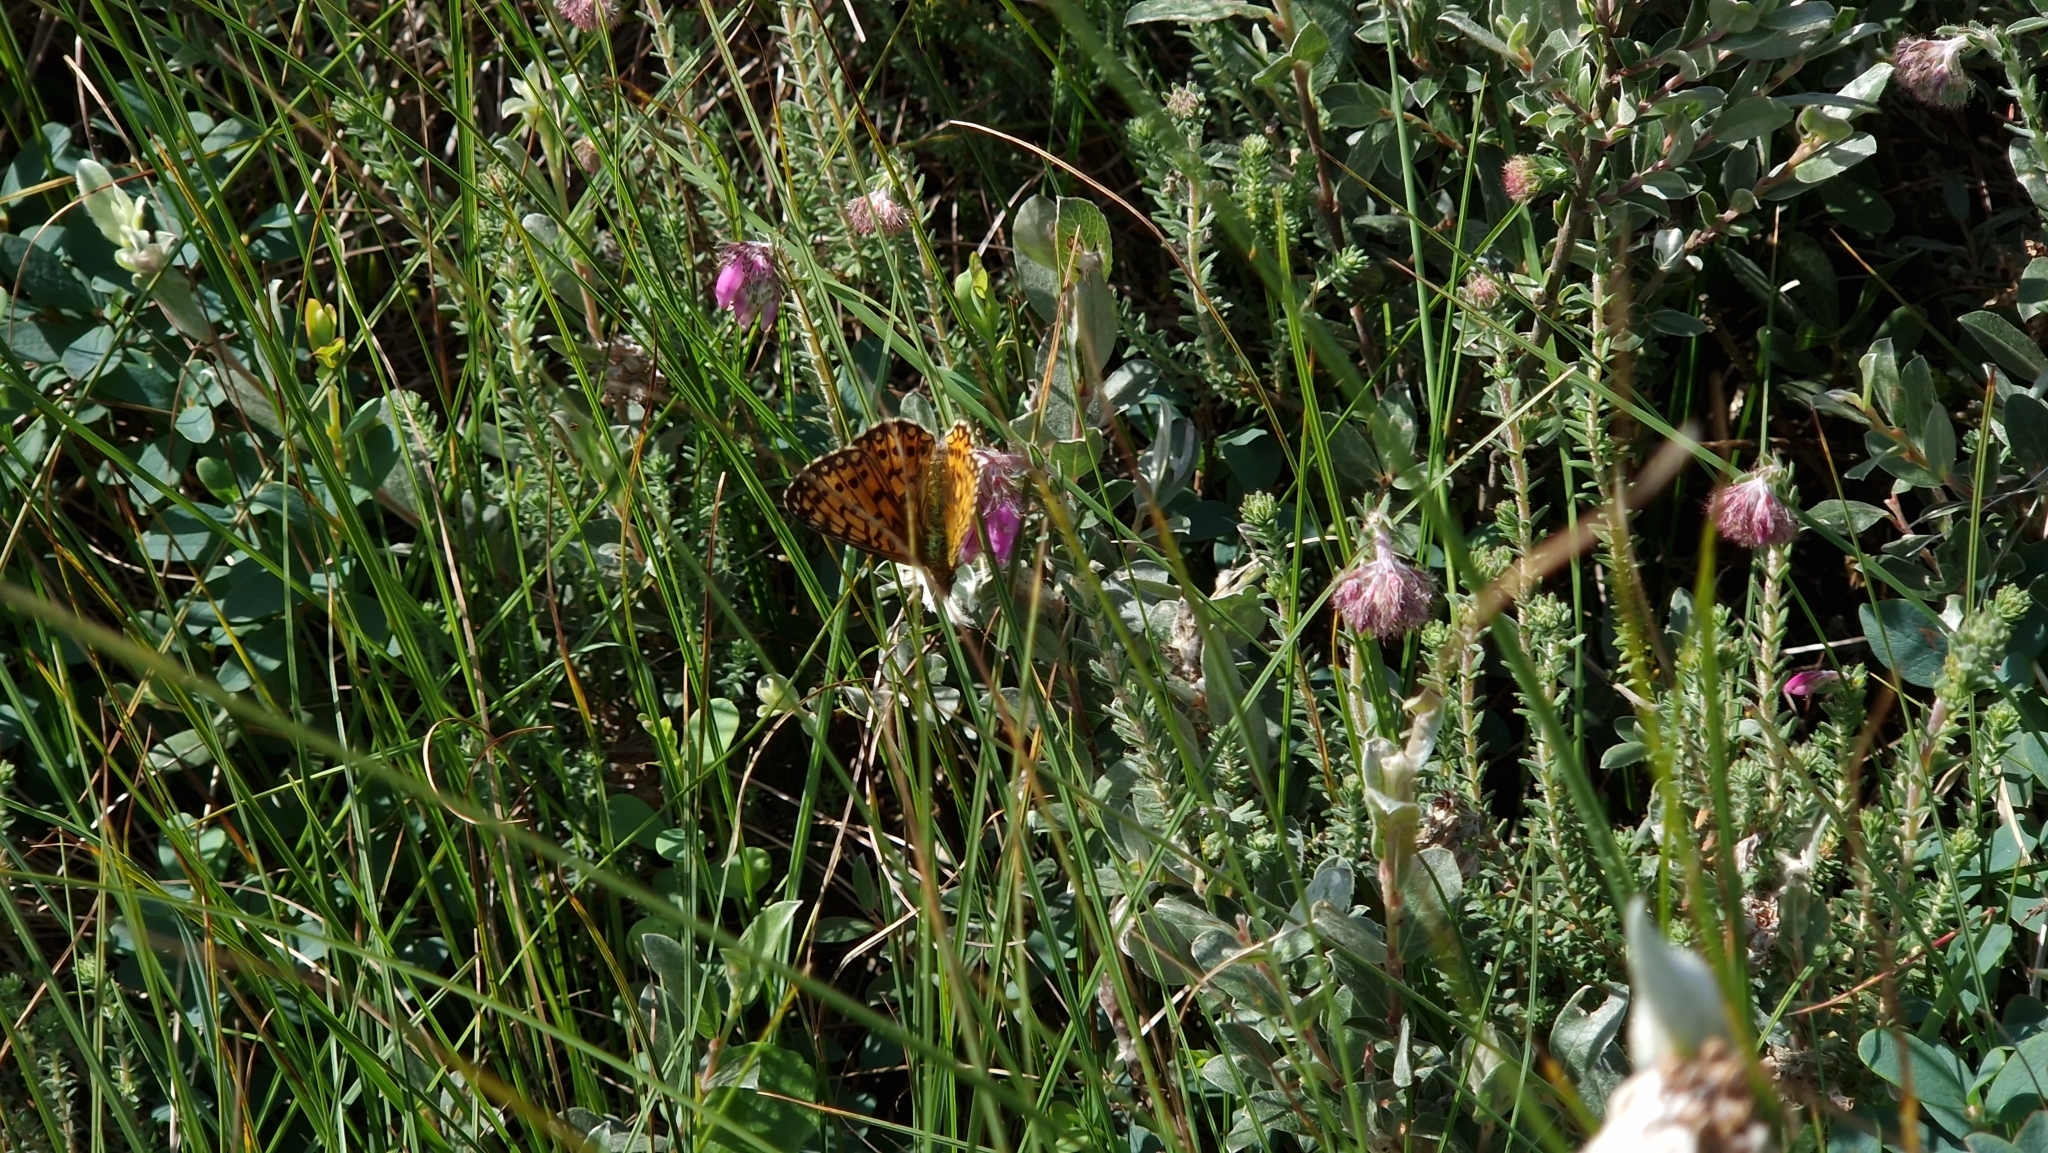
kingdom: Animalia
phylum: Arthropoda
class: Insecta
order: Lepidoptera
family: Nymphalidae
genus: Boloria
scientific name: Boloria selene
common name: Small pearl-bordered fritillary
